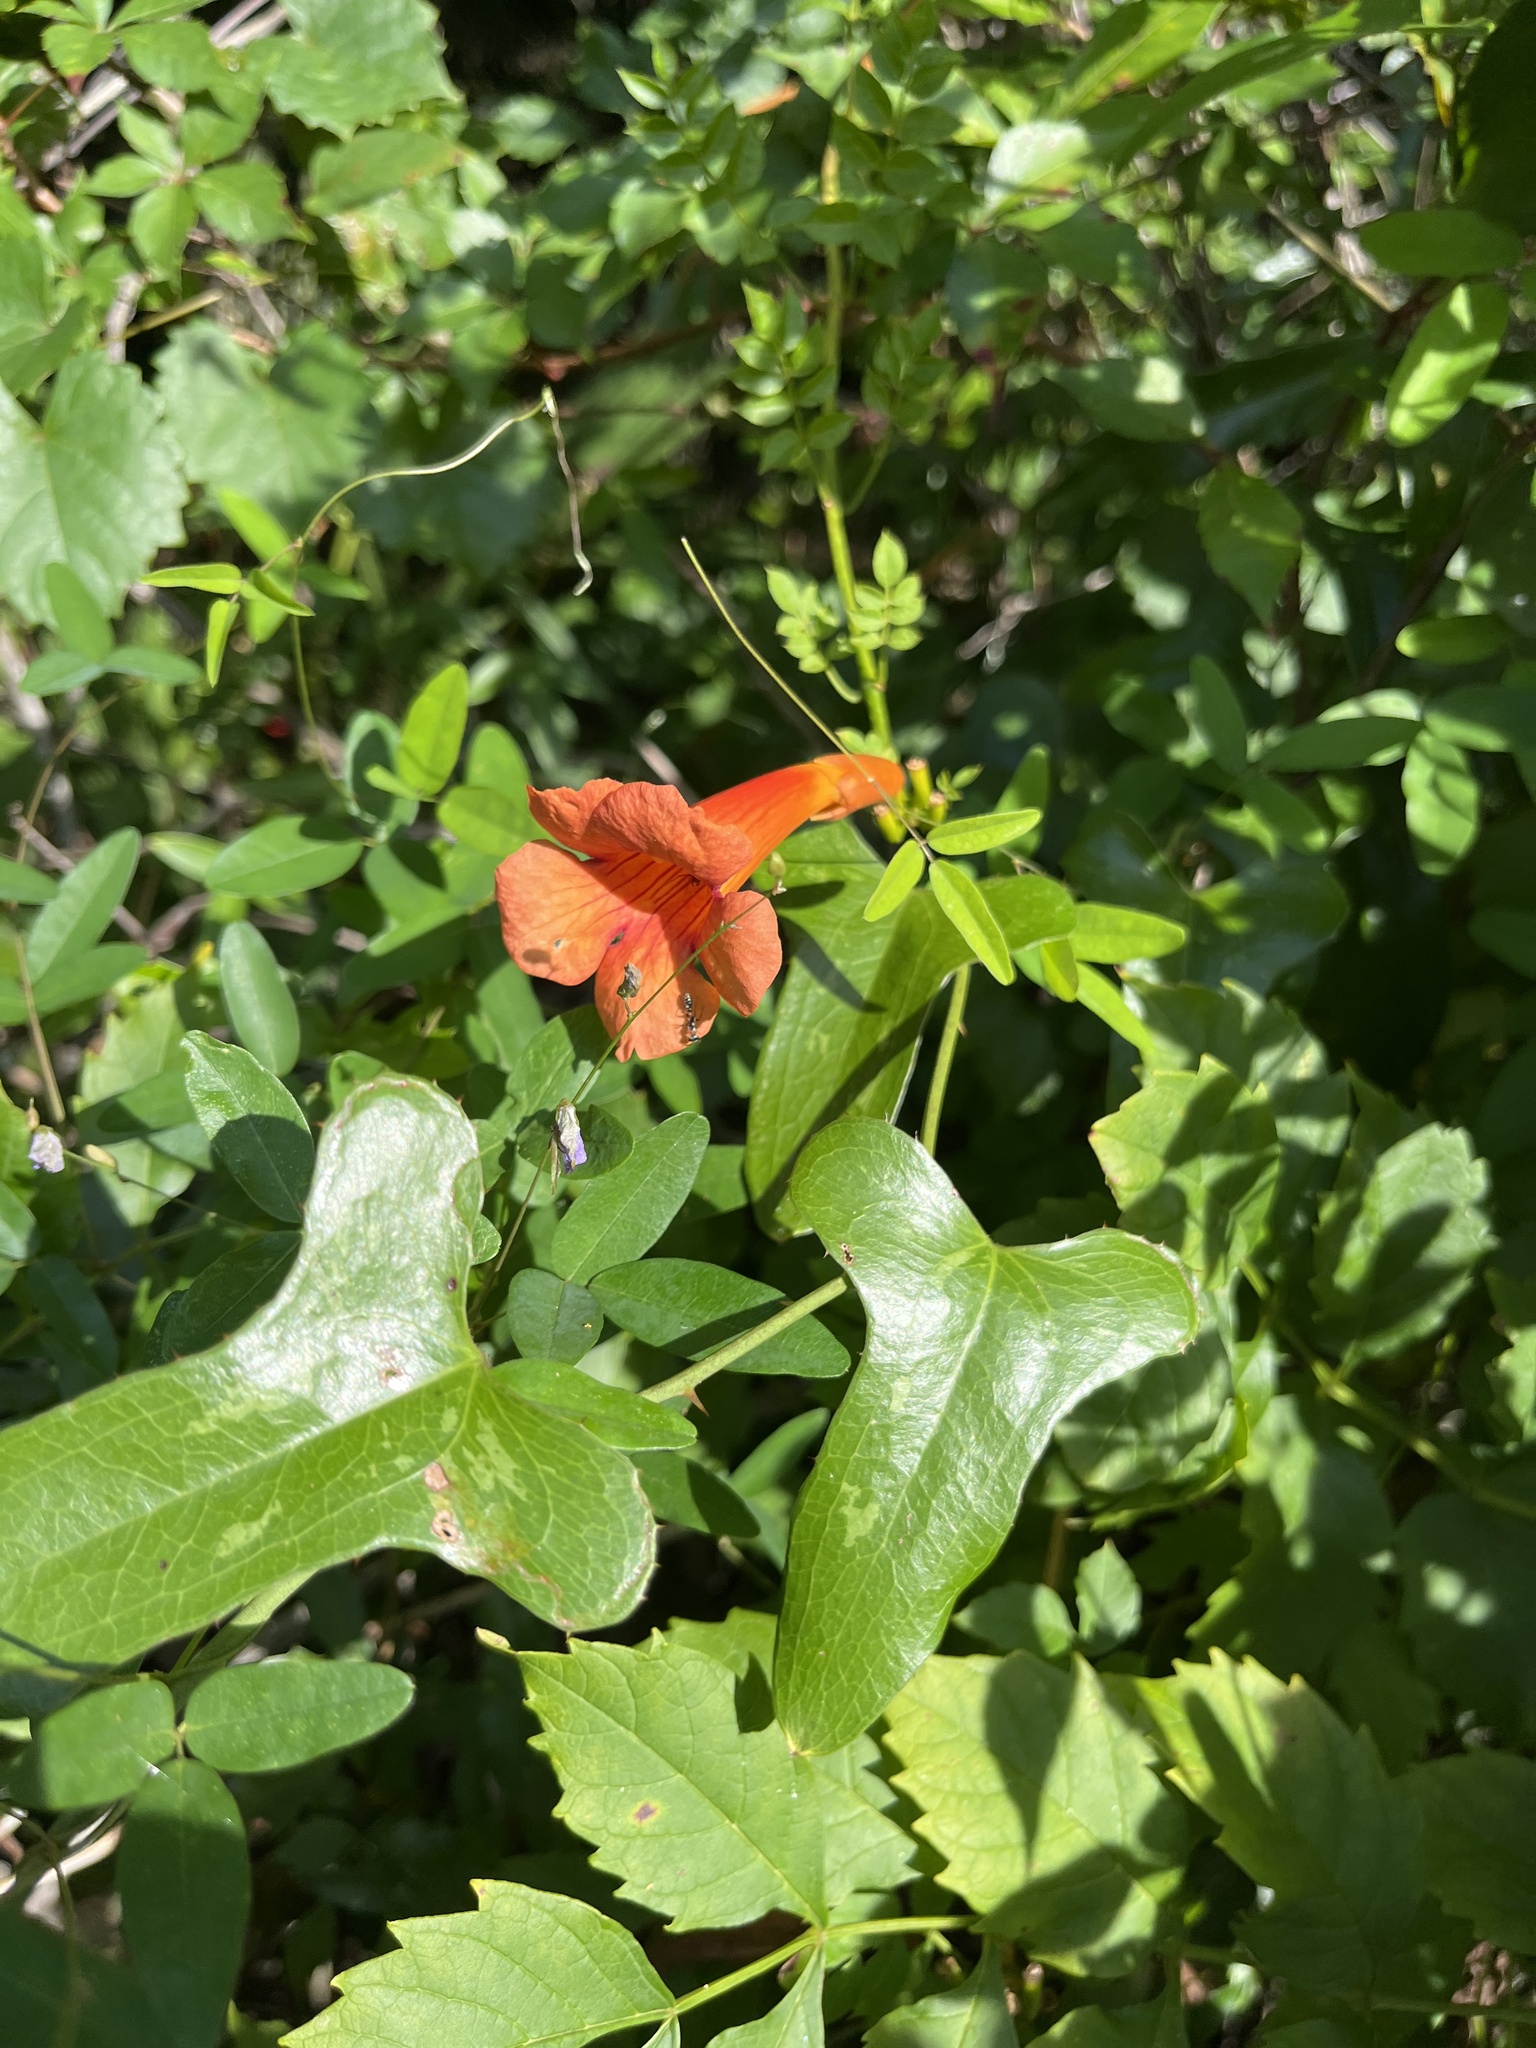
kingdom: Plantae
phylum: Tracheophyta
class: Magnoliopsida
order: Lamiales
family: Bignoniaceae
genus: Campsis
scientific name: Campsis radicans
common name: Trumpet-creeper
